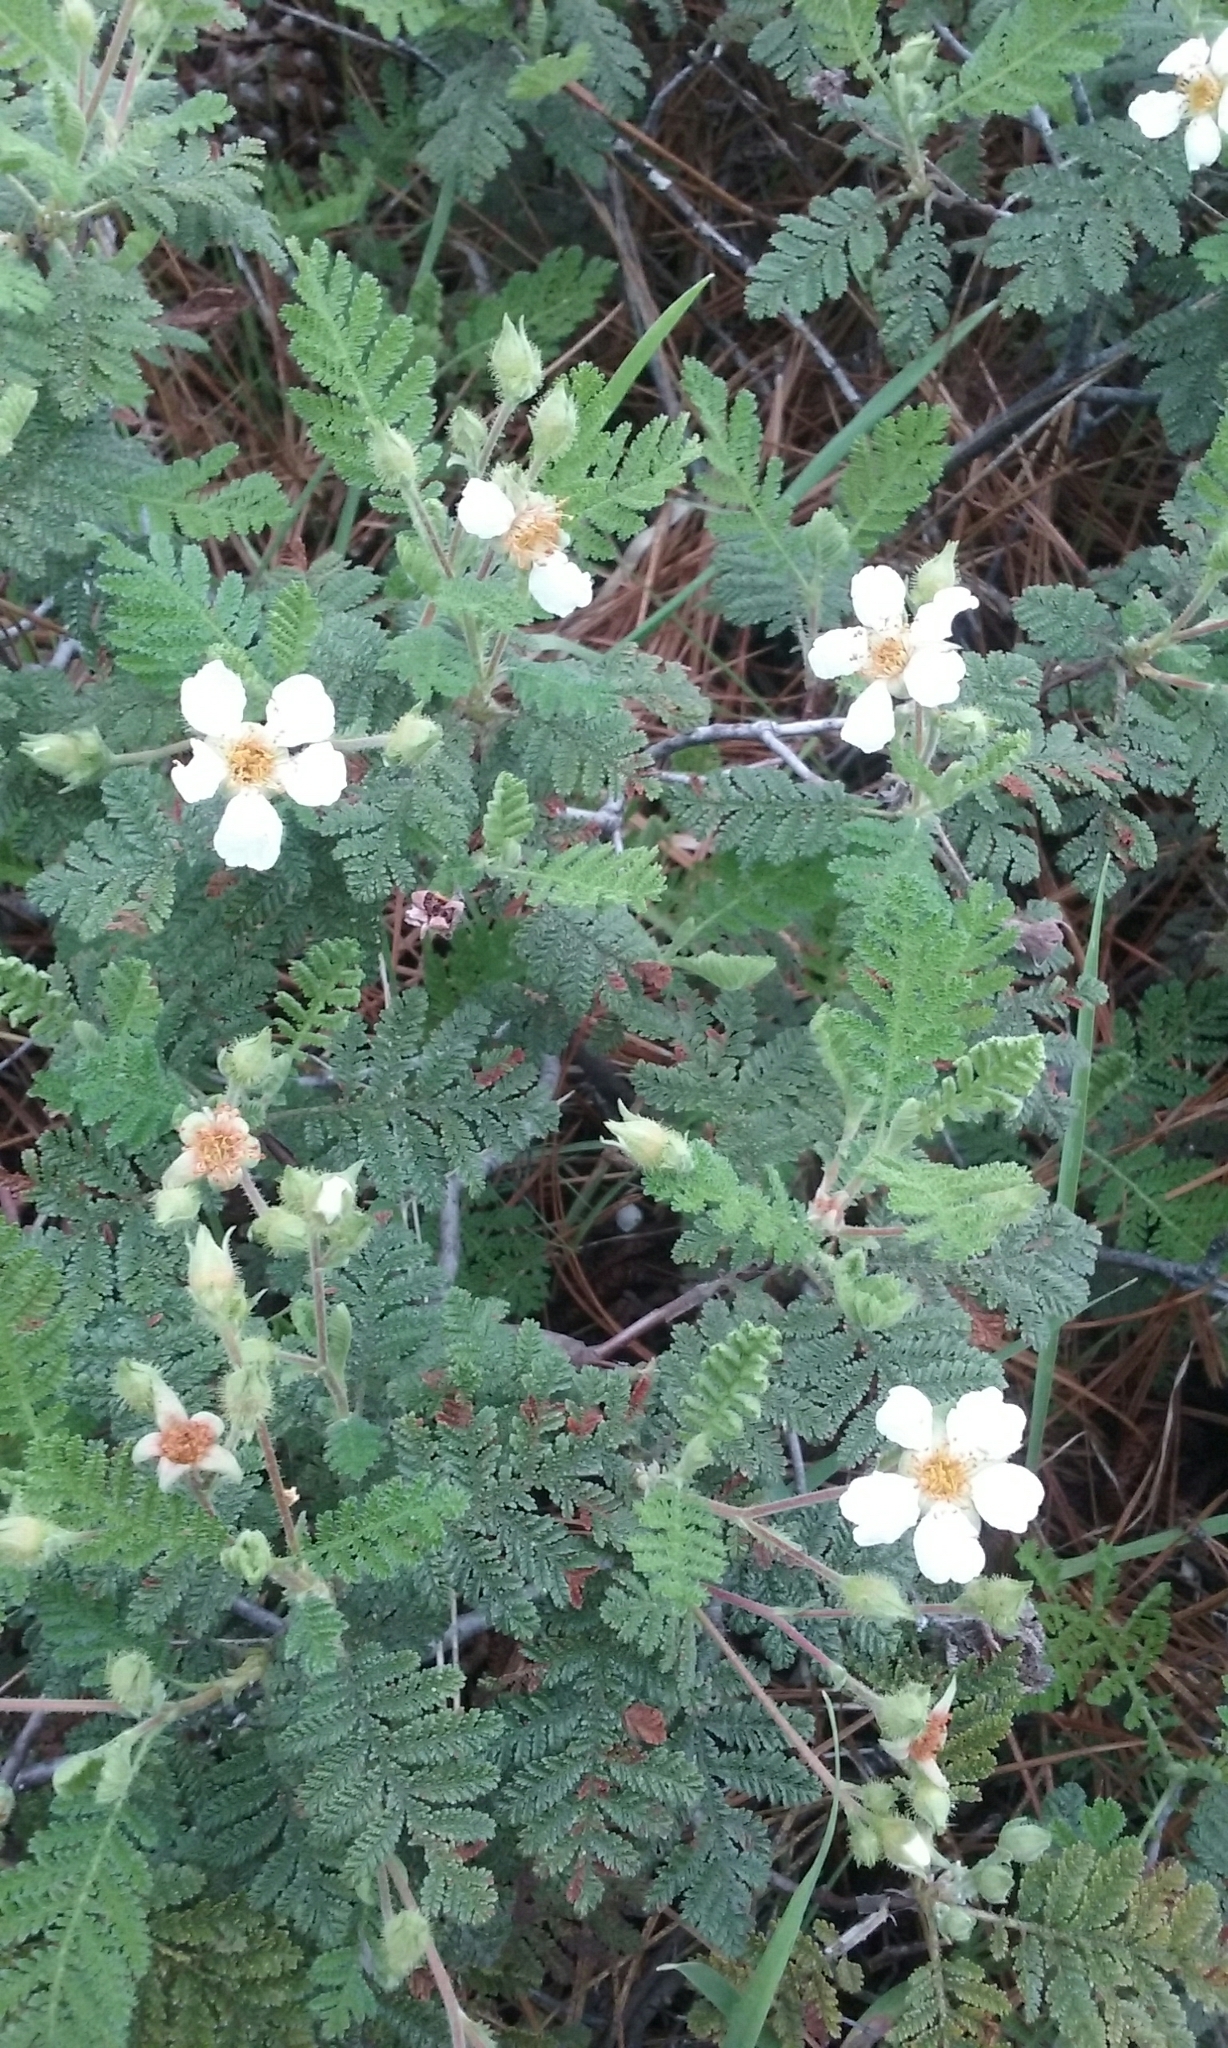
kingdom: Plantae
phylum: Tracheophyta
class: Magnoliopsida
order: Rosales
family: Rosaceae
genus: Chamaebatia
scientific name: Chamaebatia foliolosa
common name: Mountain misery
